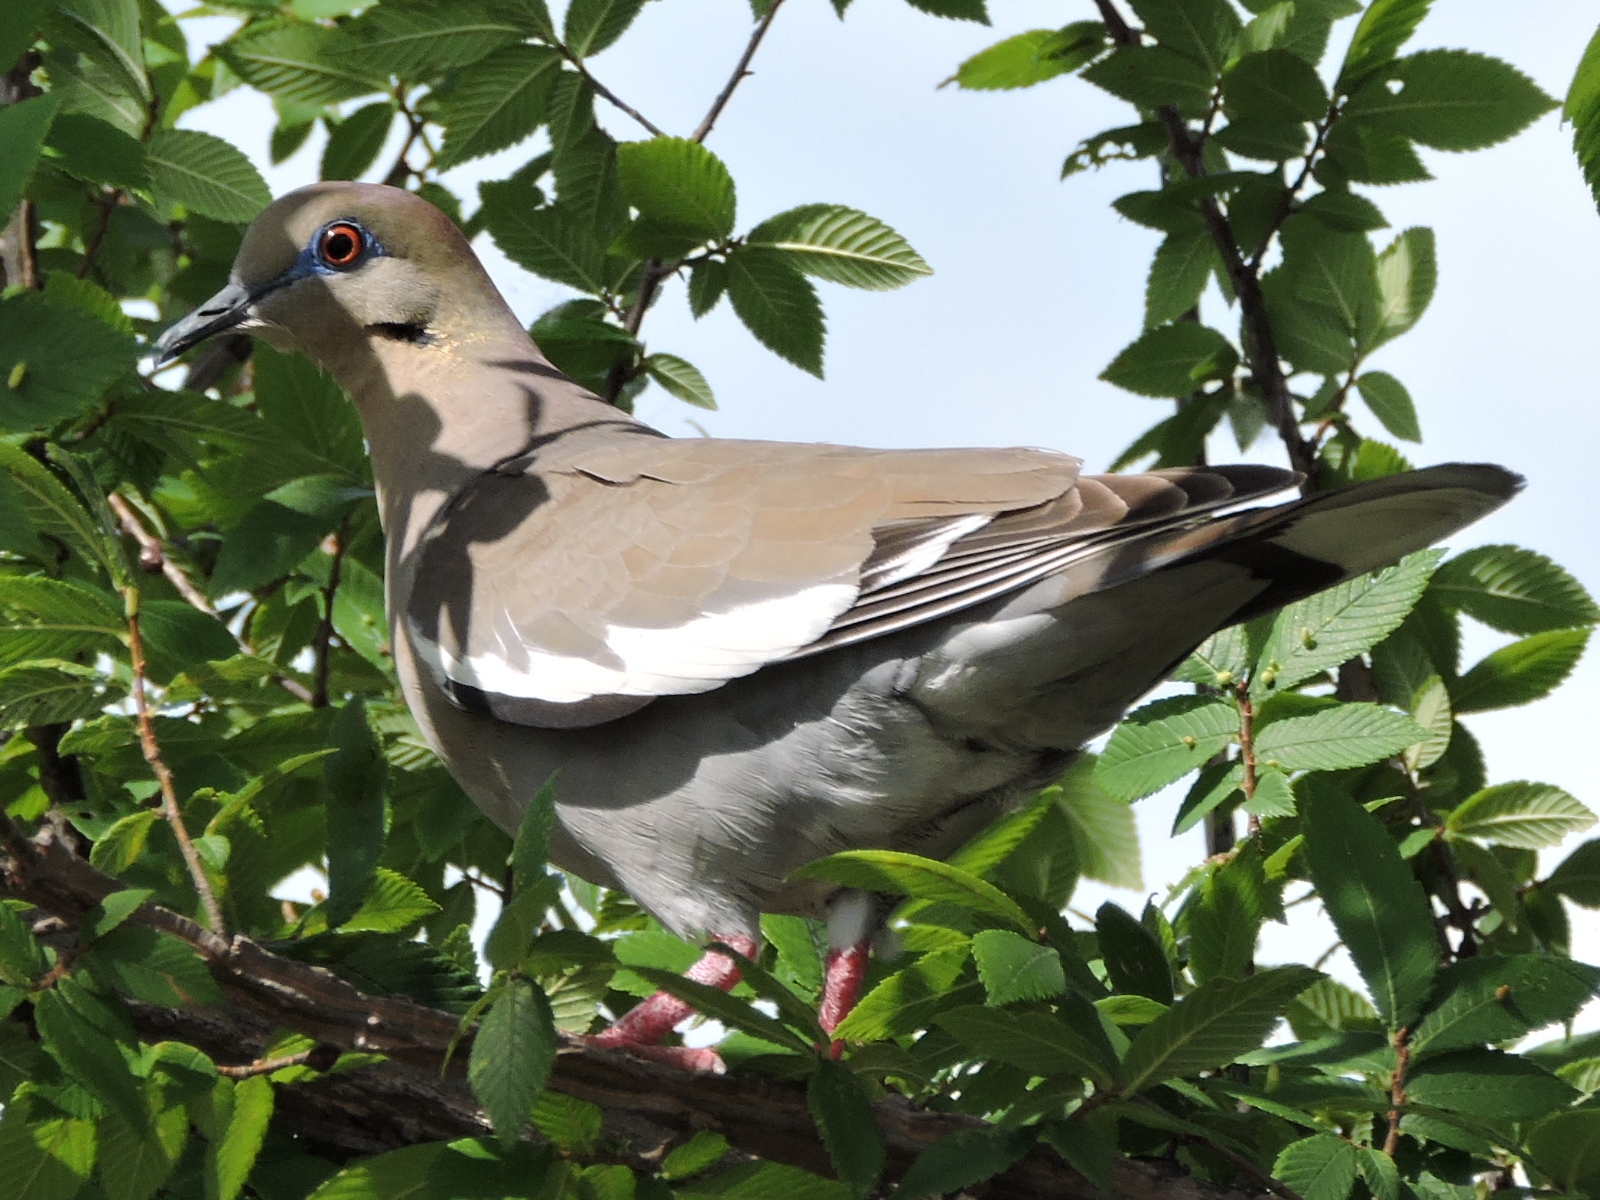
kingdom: Animalia
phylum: Chordata
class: Aves
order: Columbiformes
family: Columbidae
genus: Zenaida
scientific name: Zenaida asiatica
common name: White-winged dove
